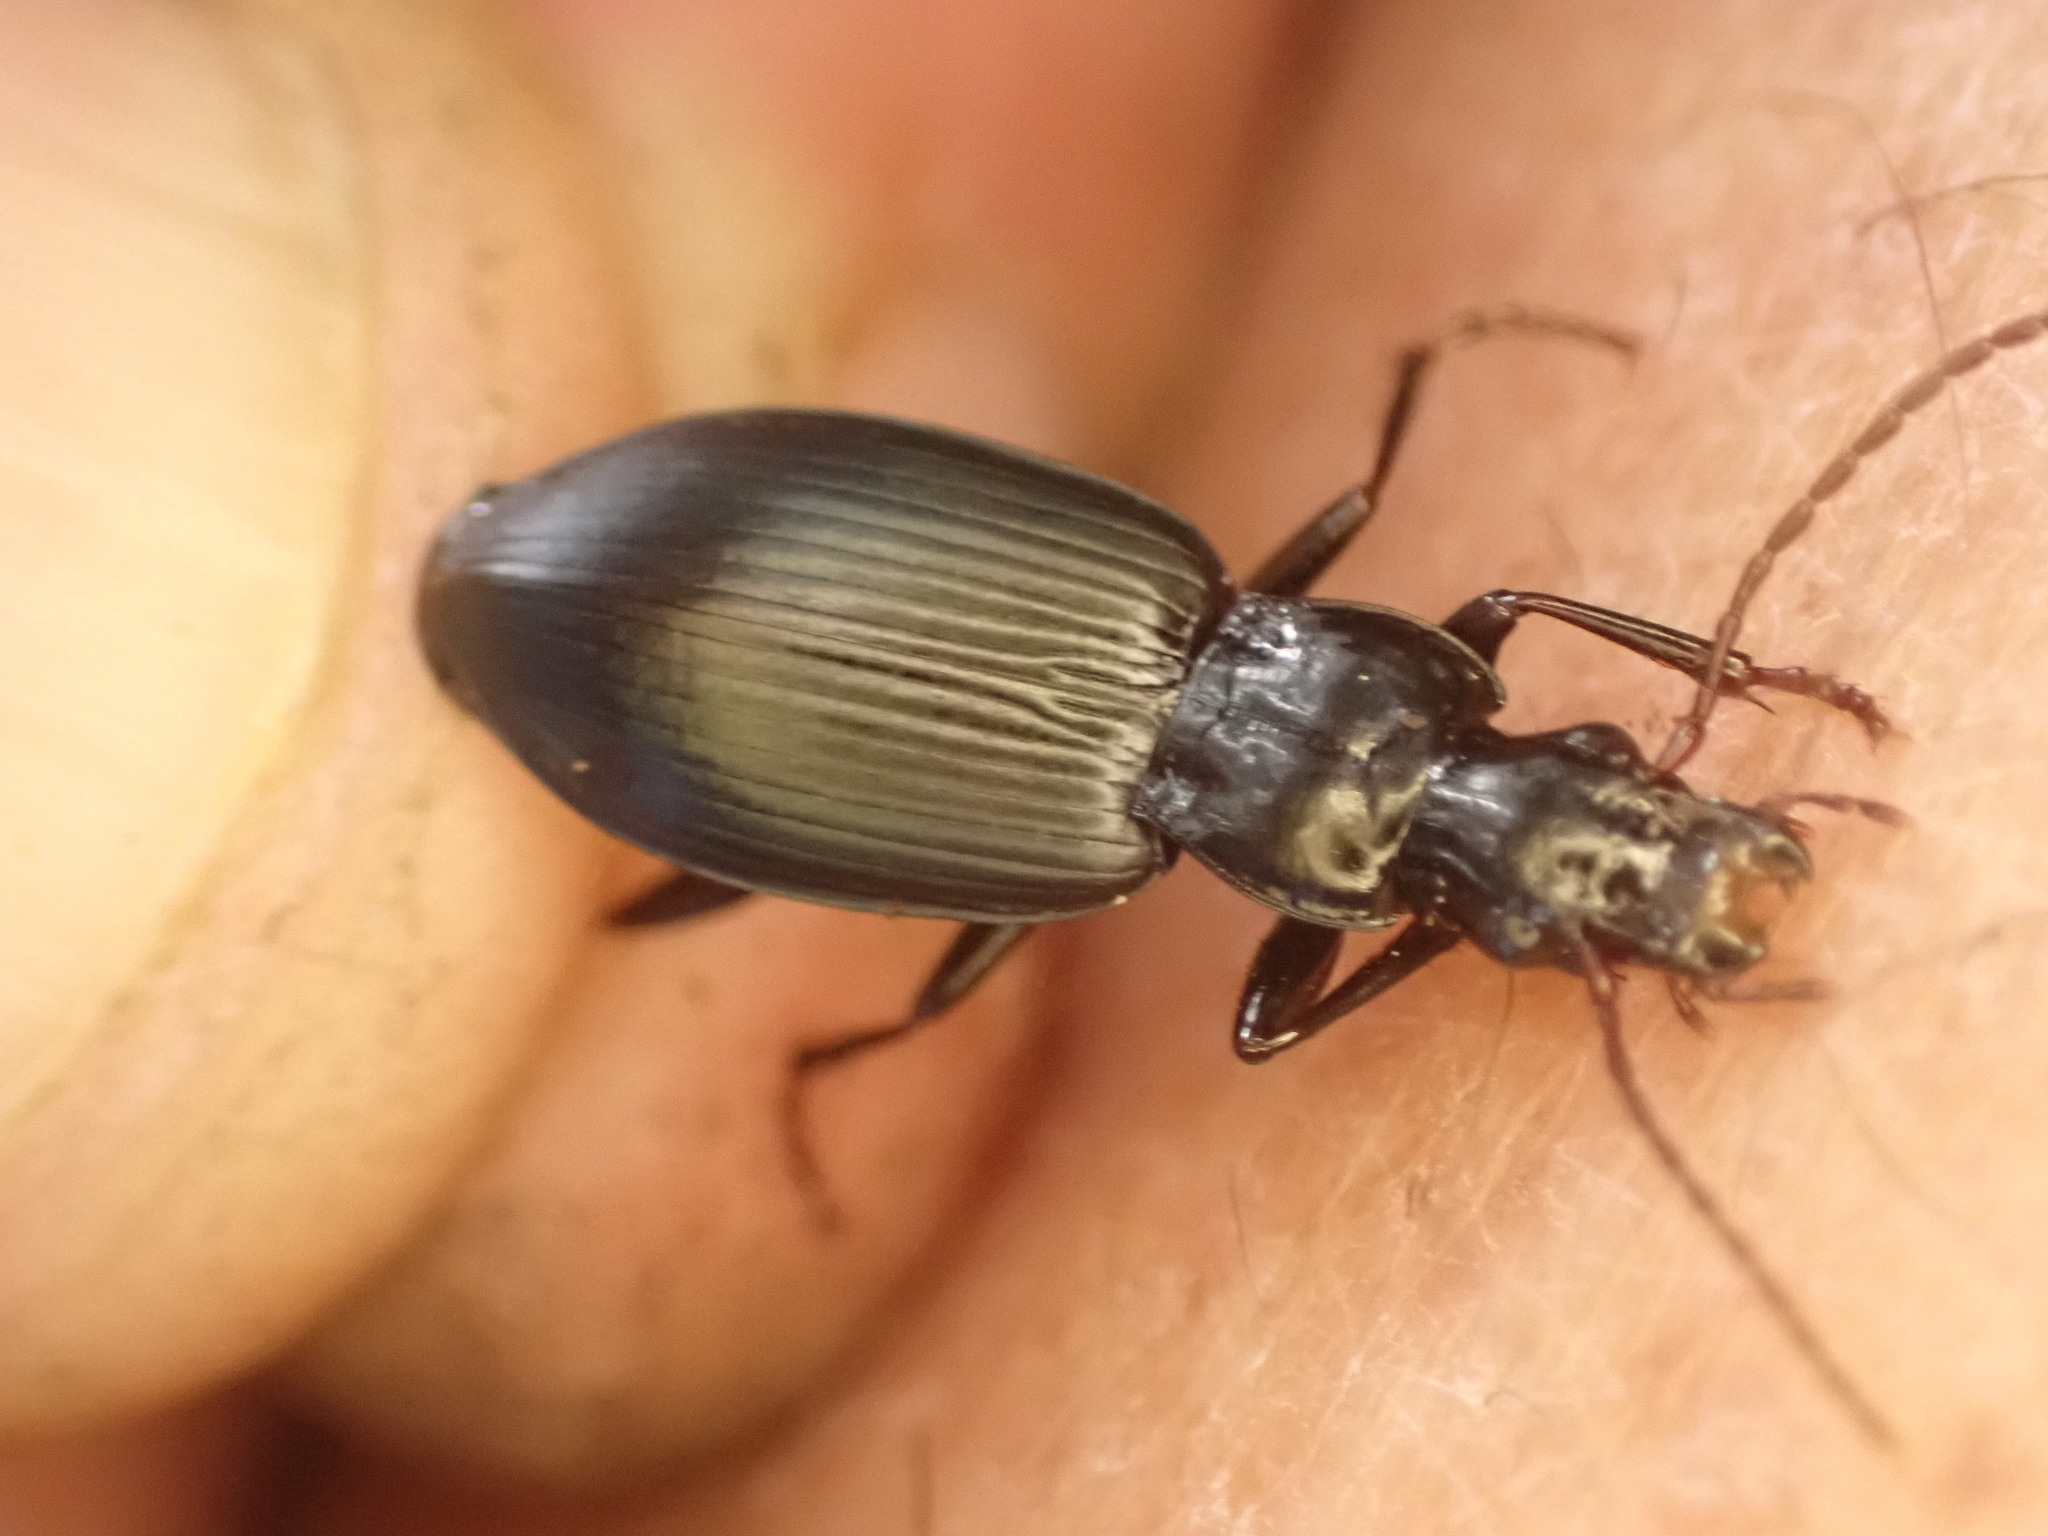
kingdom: Animalia
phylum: Arthropoda
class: Insecta
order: Coleoptera
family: Carabidae
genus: Laemostenus
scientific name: Laemostenus complanatus
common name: Cosmopolitan ground beetle
